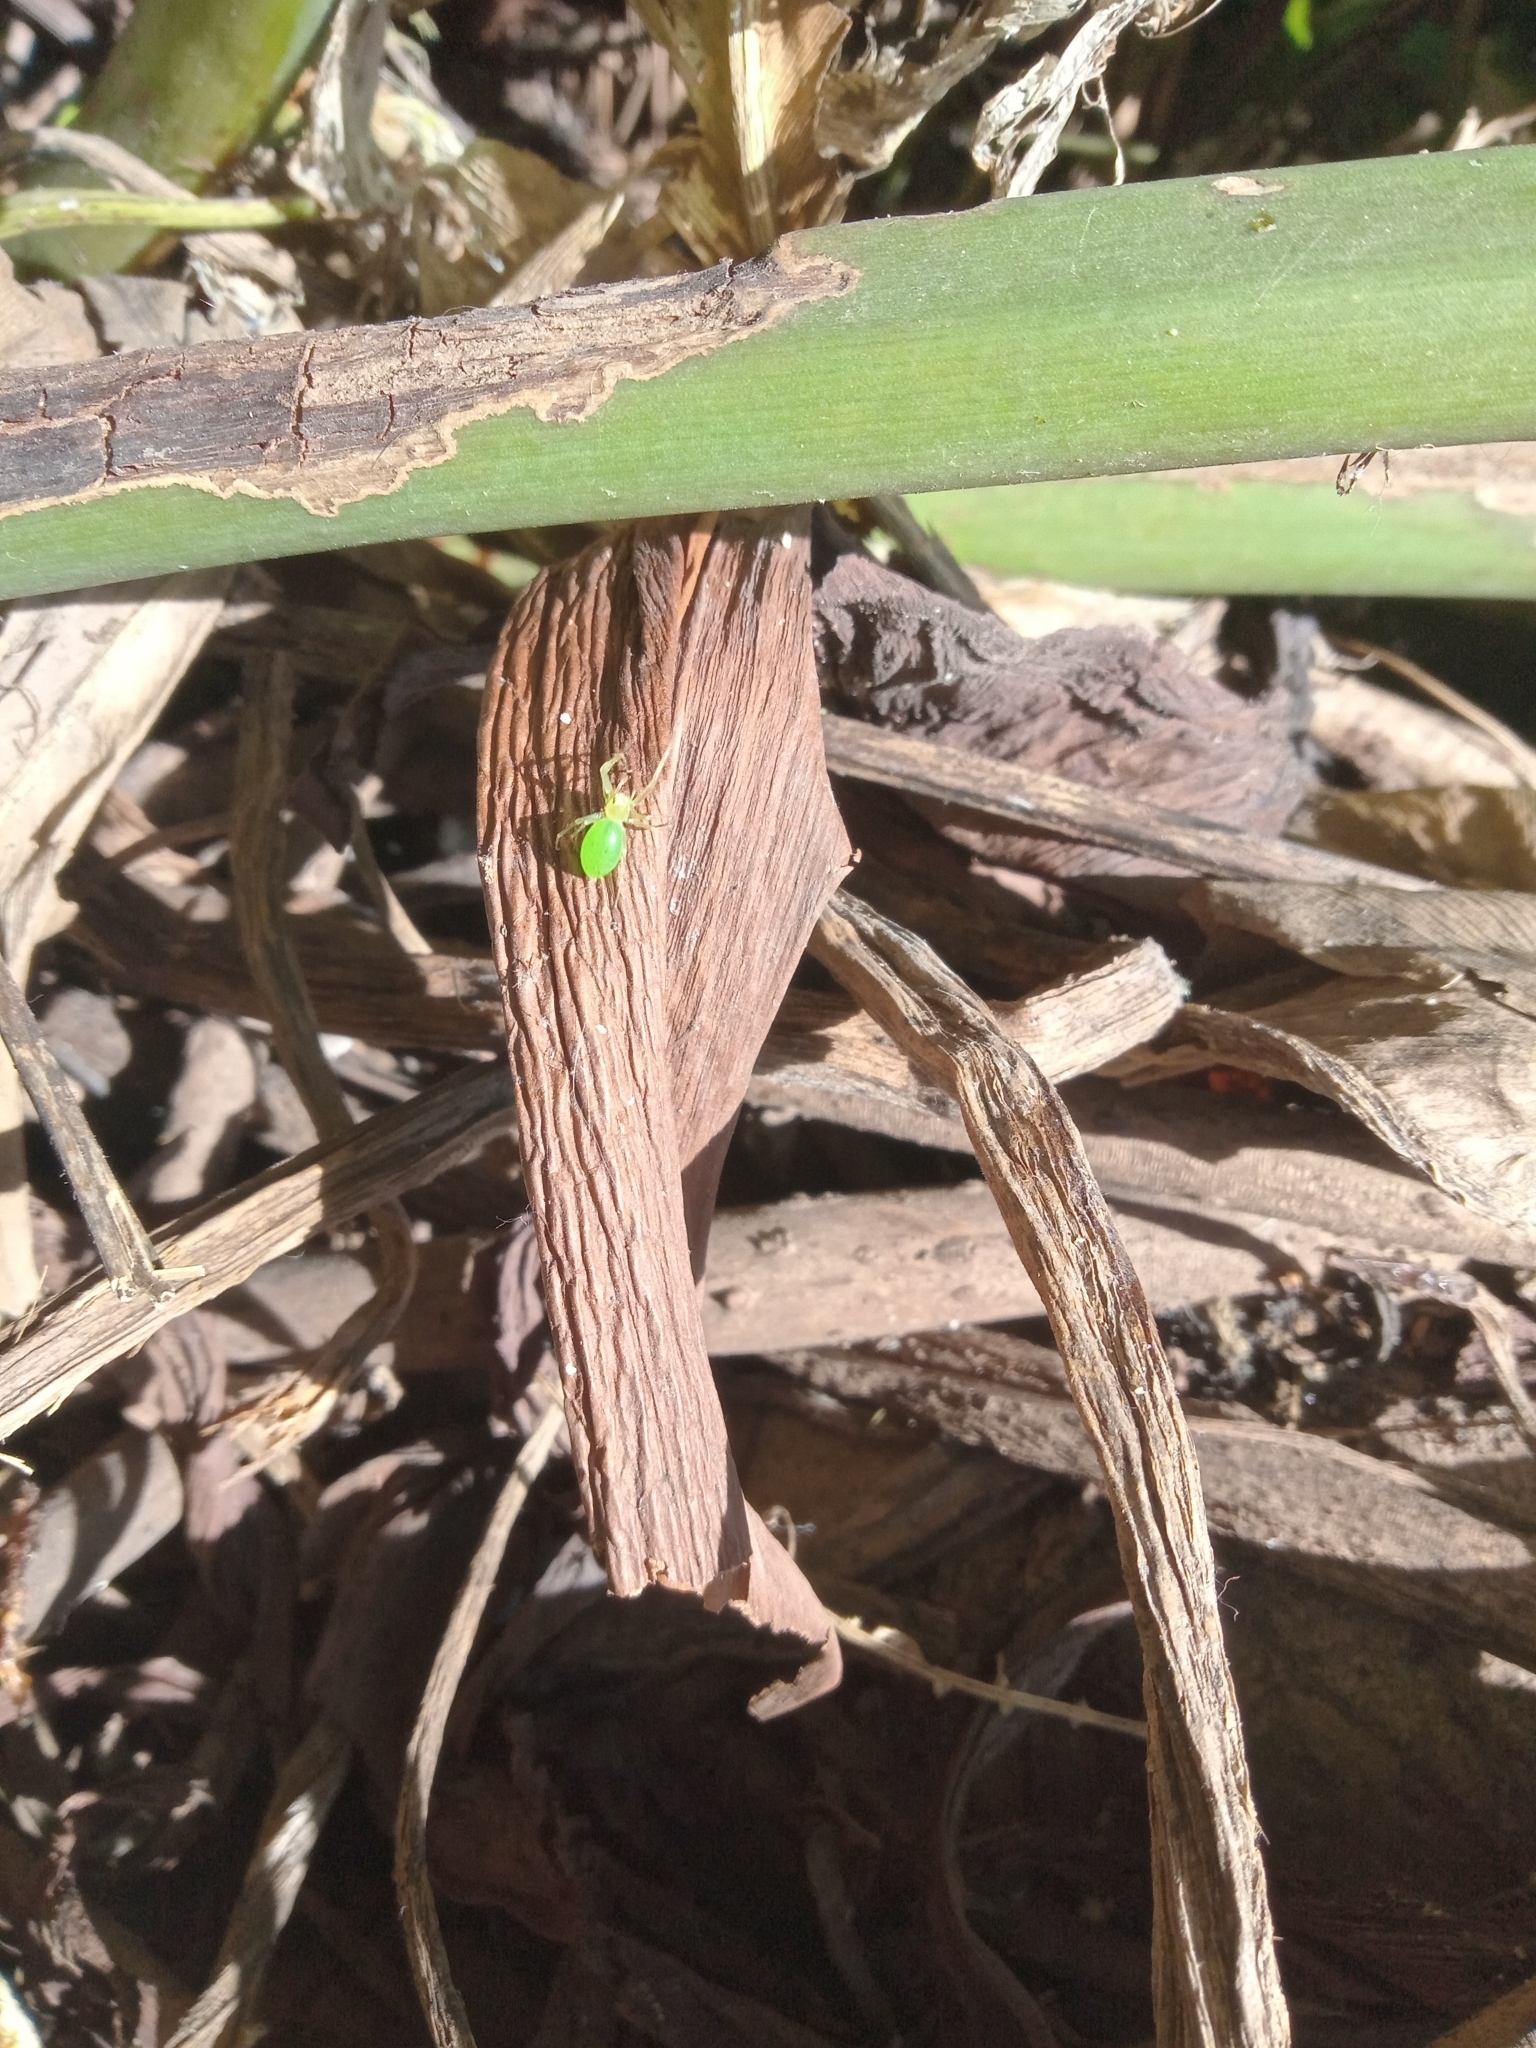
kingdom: Animalia
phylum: Arthropoda
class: Arachnida
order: Araneae
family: Salticidae
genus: Lyssomanes
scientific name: Lyssomanes pauper
